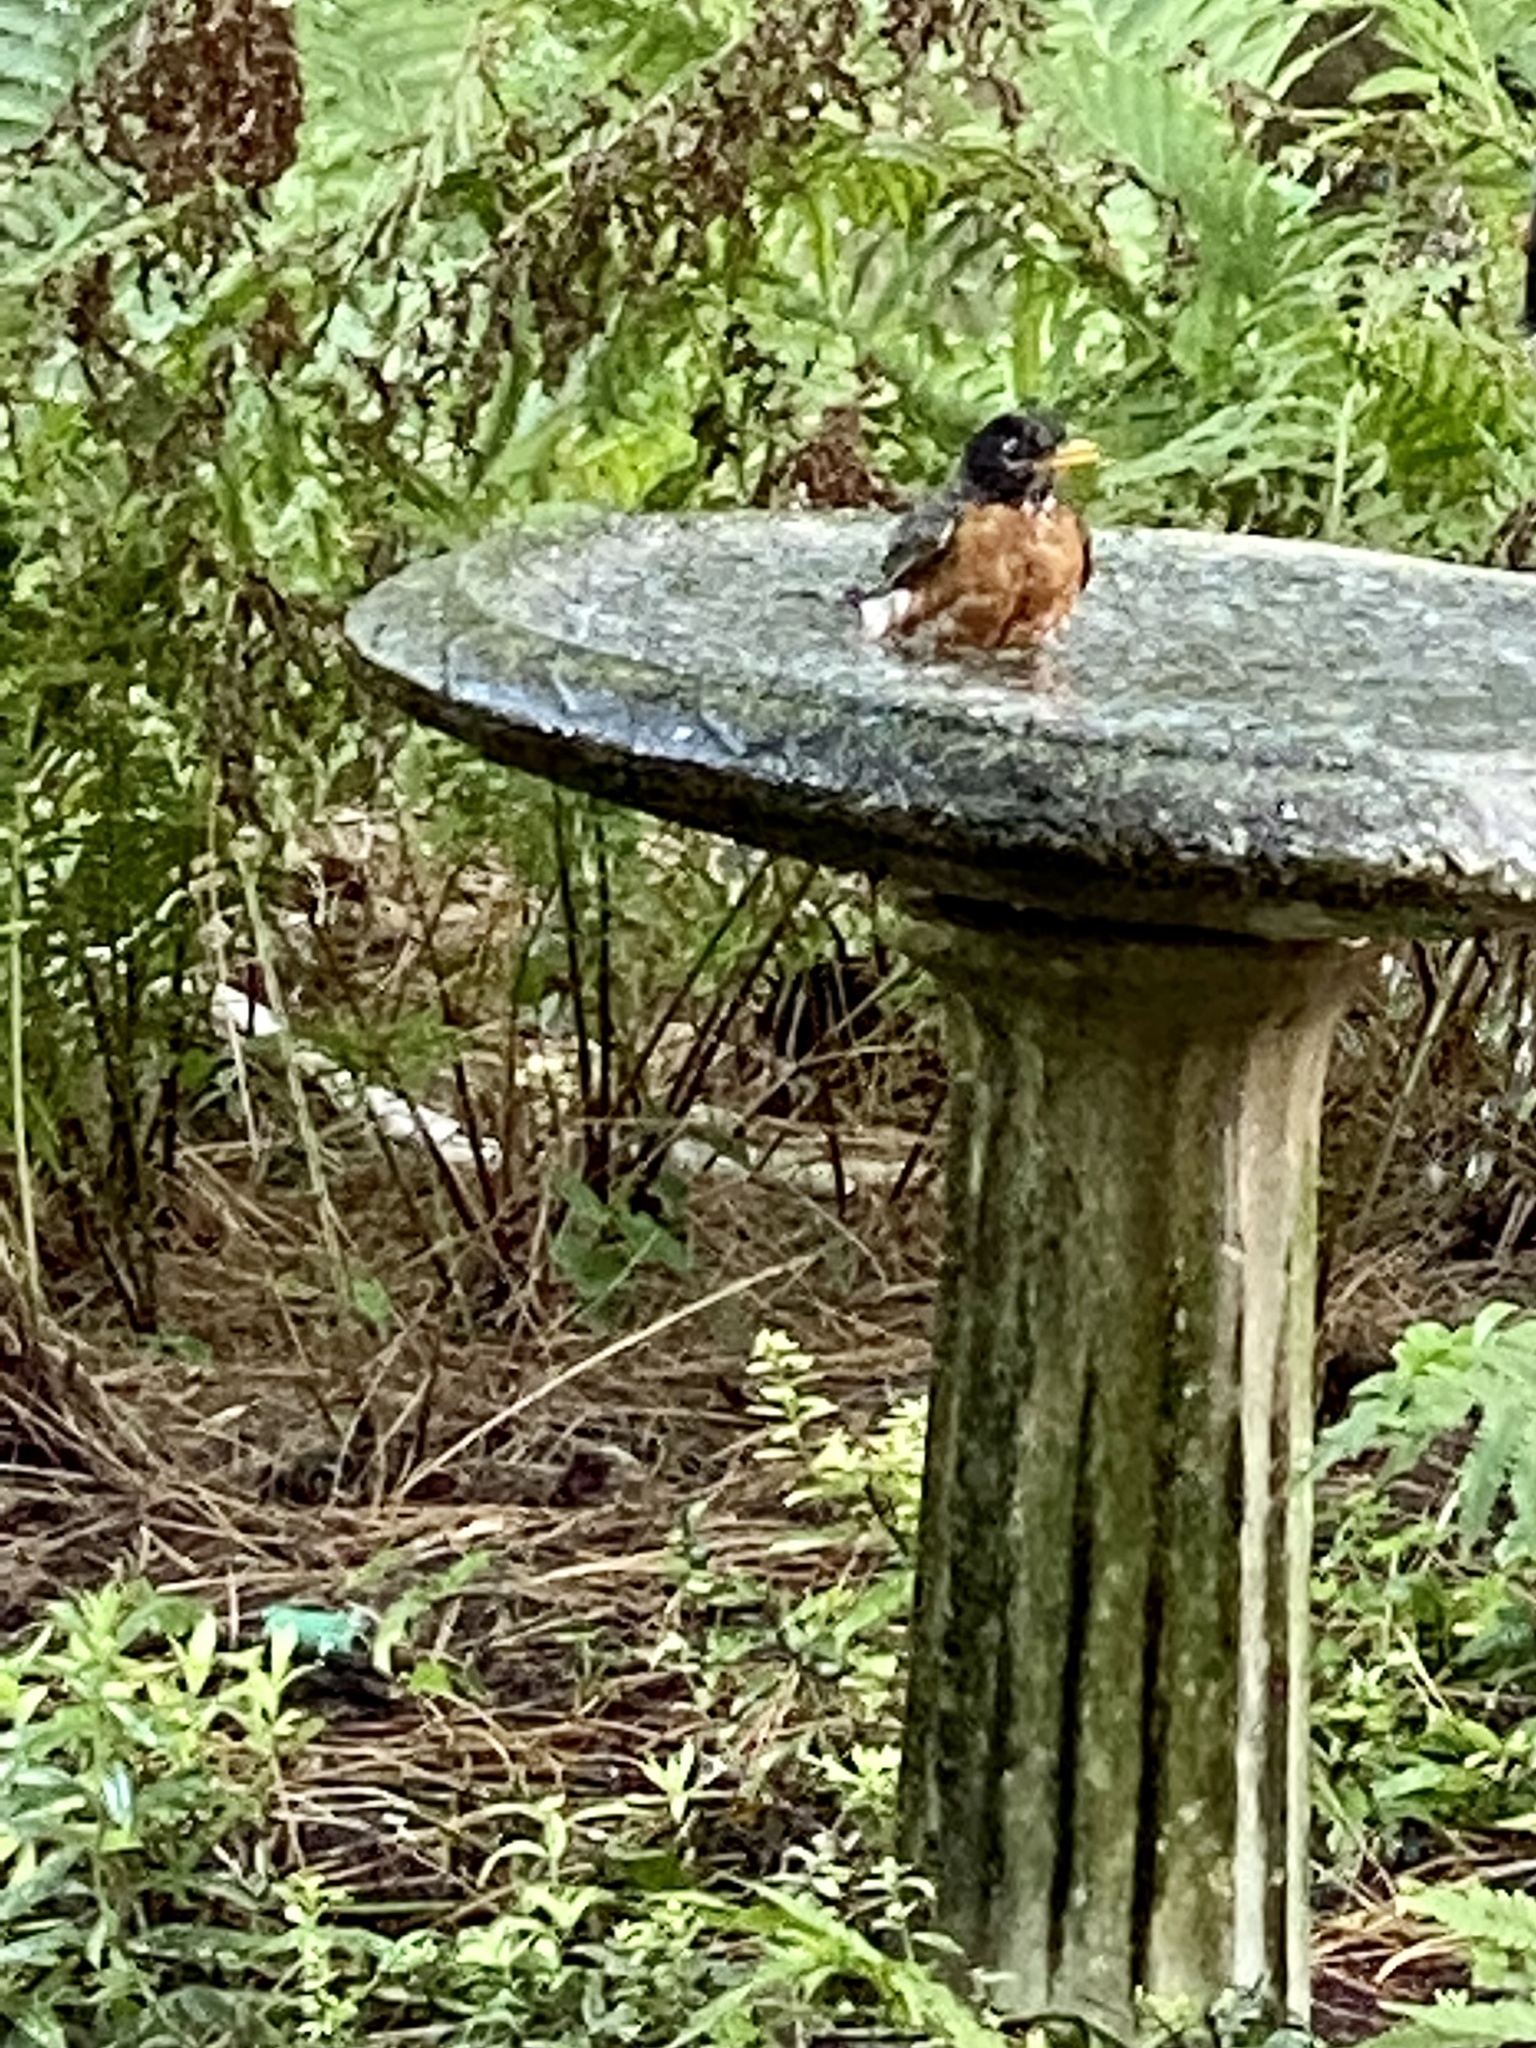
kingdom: Animalia
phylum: Chordata
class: Aves
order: Passeriformes
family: Turdidae
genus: Turdus
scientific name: Turdus migratorius
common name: American robin
